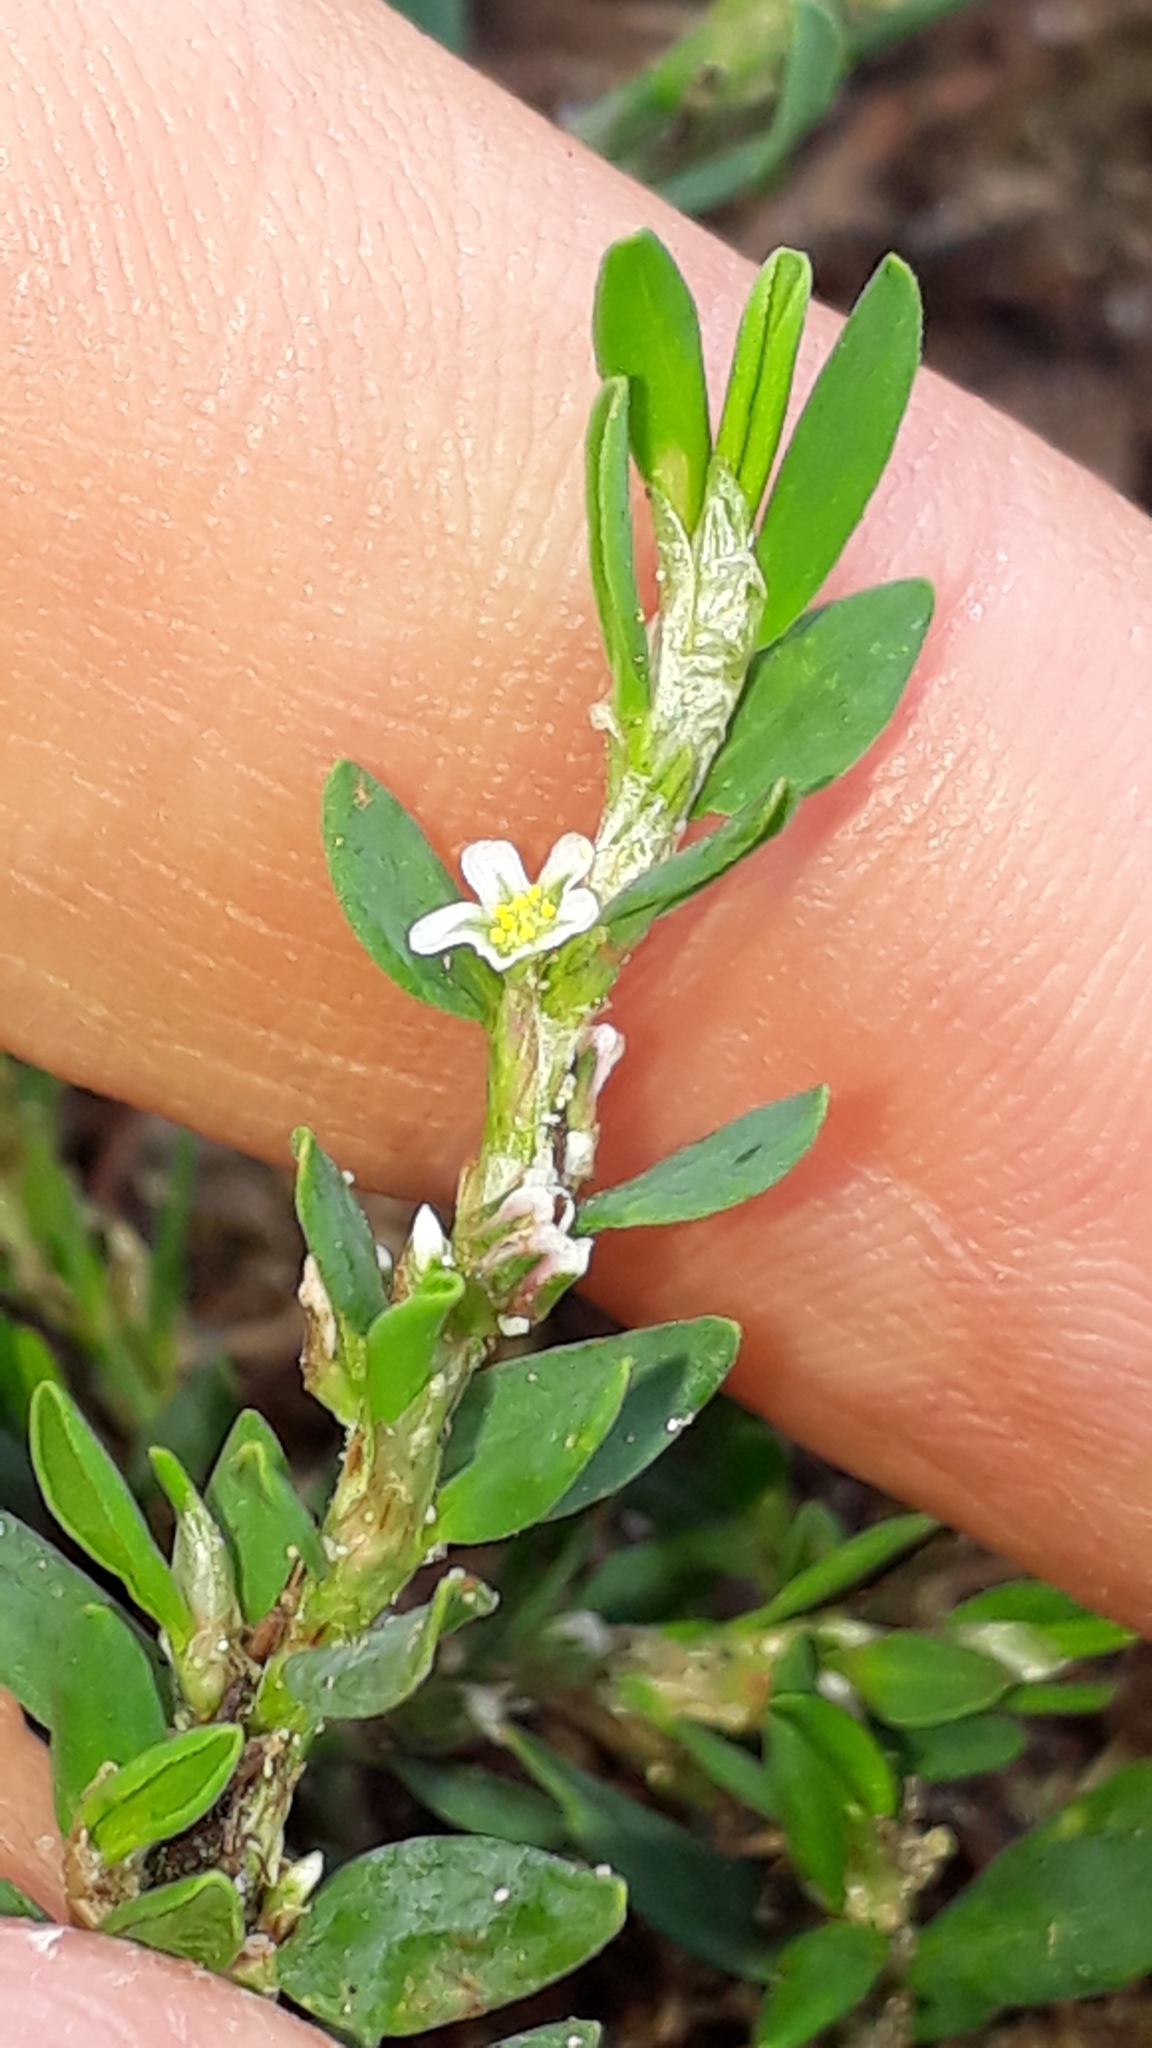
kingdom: Plantae
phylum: Tracheophyta
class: Magnoliopsida
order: Caryophyllales
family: Polygonaceae
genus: Polygonum
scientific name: Polygonum aviculare
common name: Prostrate knotweed
